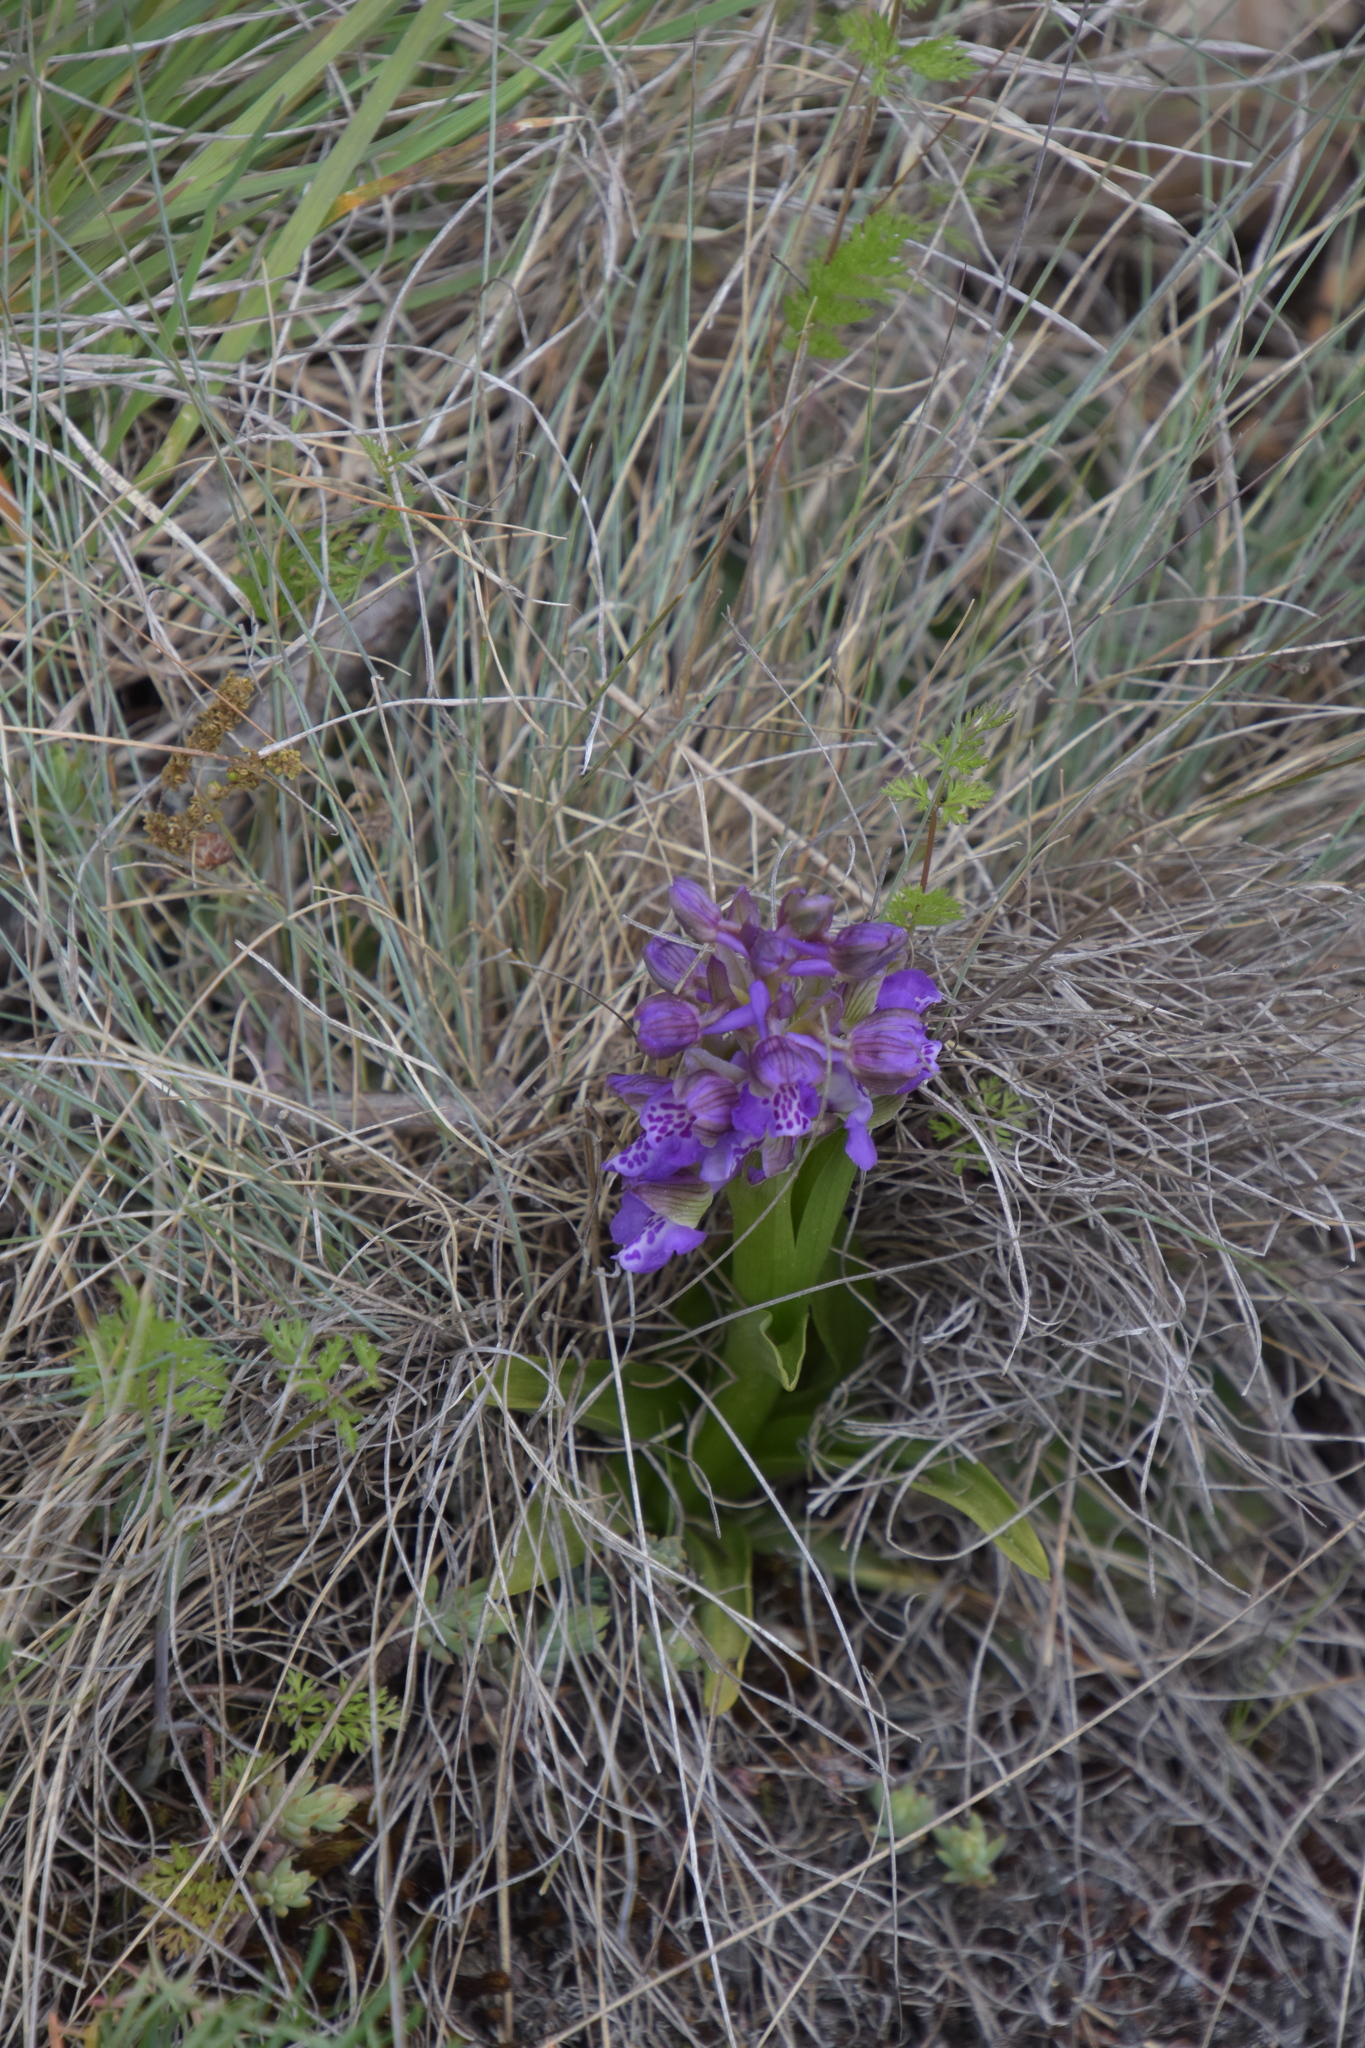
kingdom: Plantae
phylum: Tracheophyta
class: Liliopsida
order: Asparagales
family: Orchidaceae
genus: Anacamptis
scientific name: Anacamptis morio
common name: Green-winged orchid
